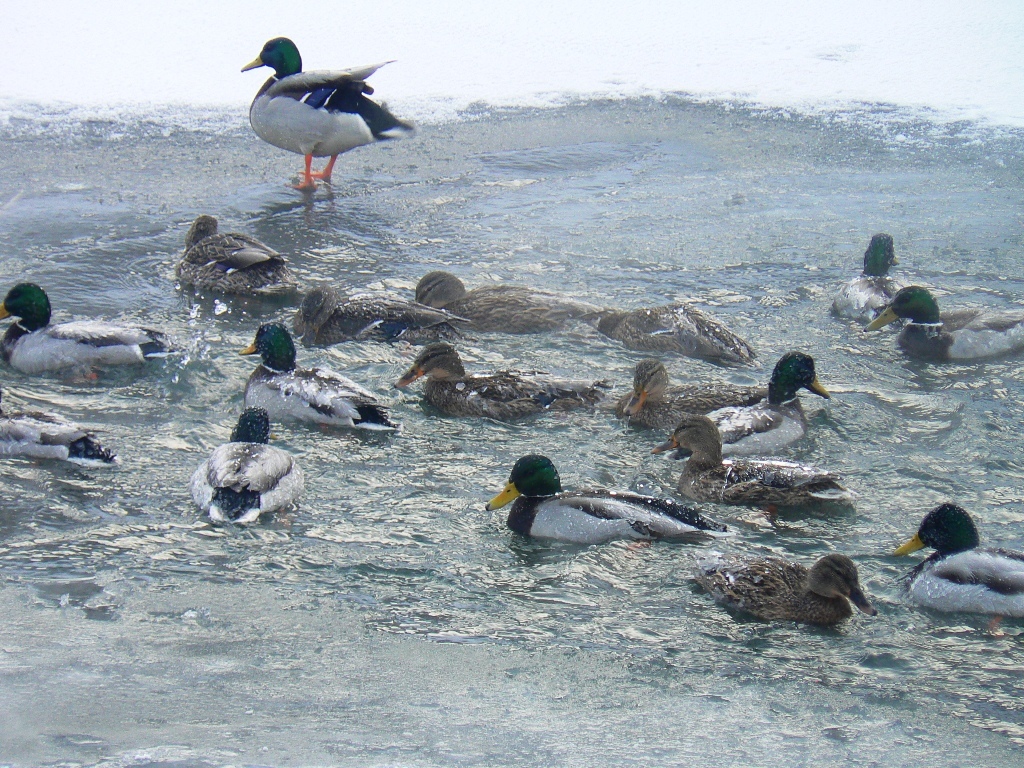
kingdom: Animalia
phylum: Chordata
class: Aves
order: Anseriformes
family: Anatidae
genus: Anas
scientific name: Anas platyrhynchos
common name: Mallard
